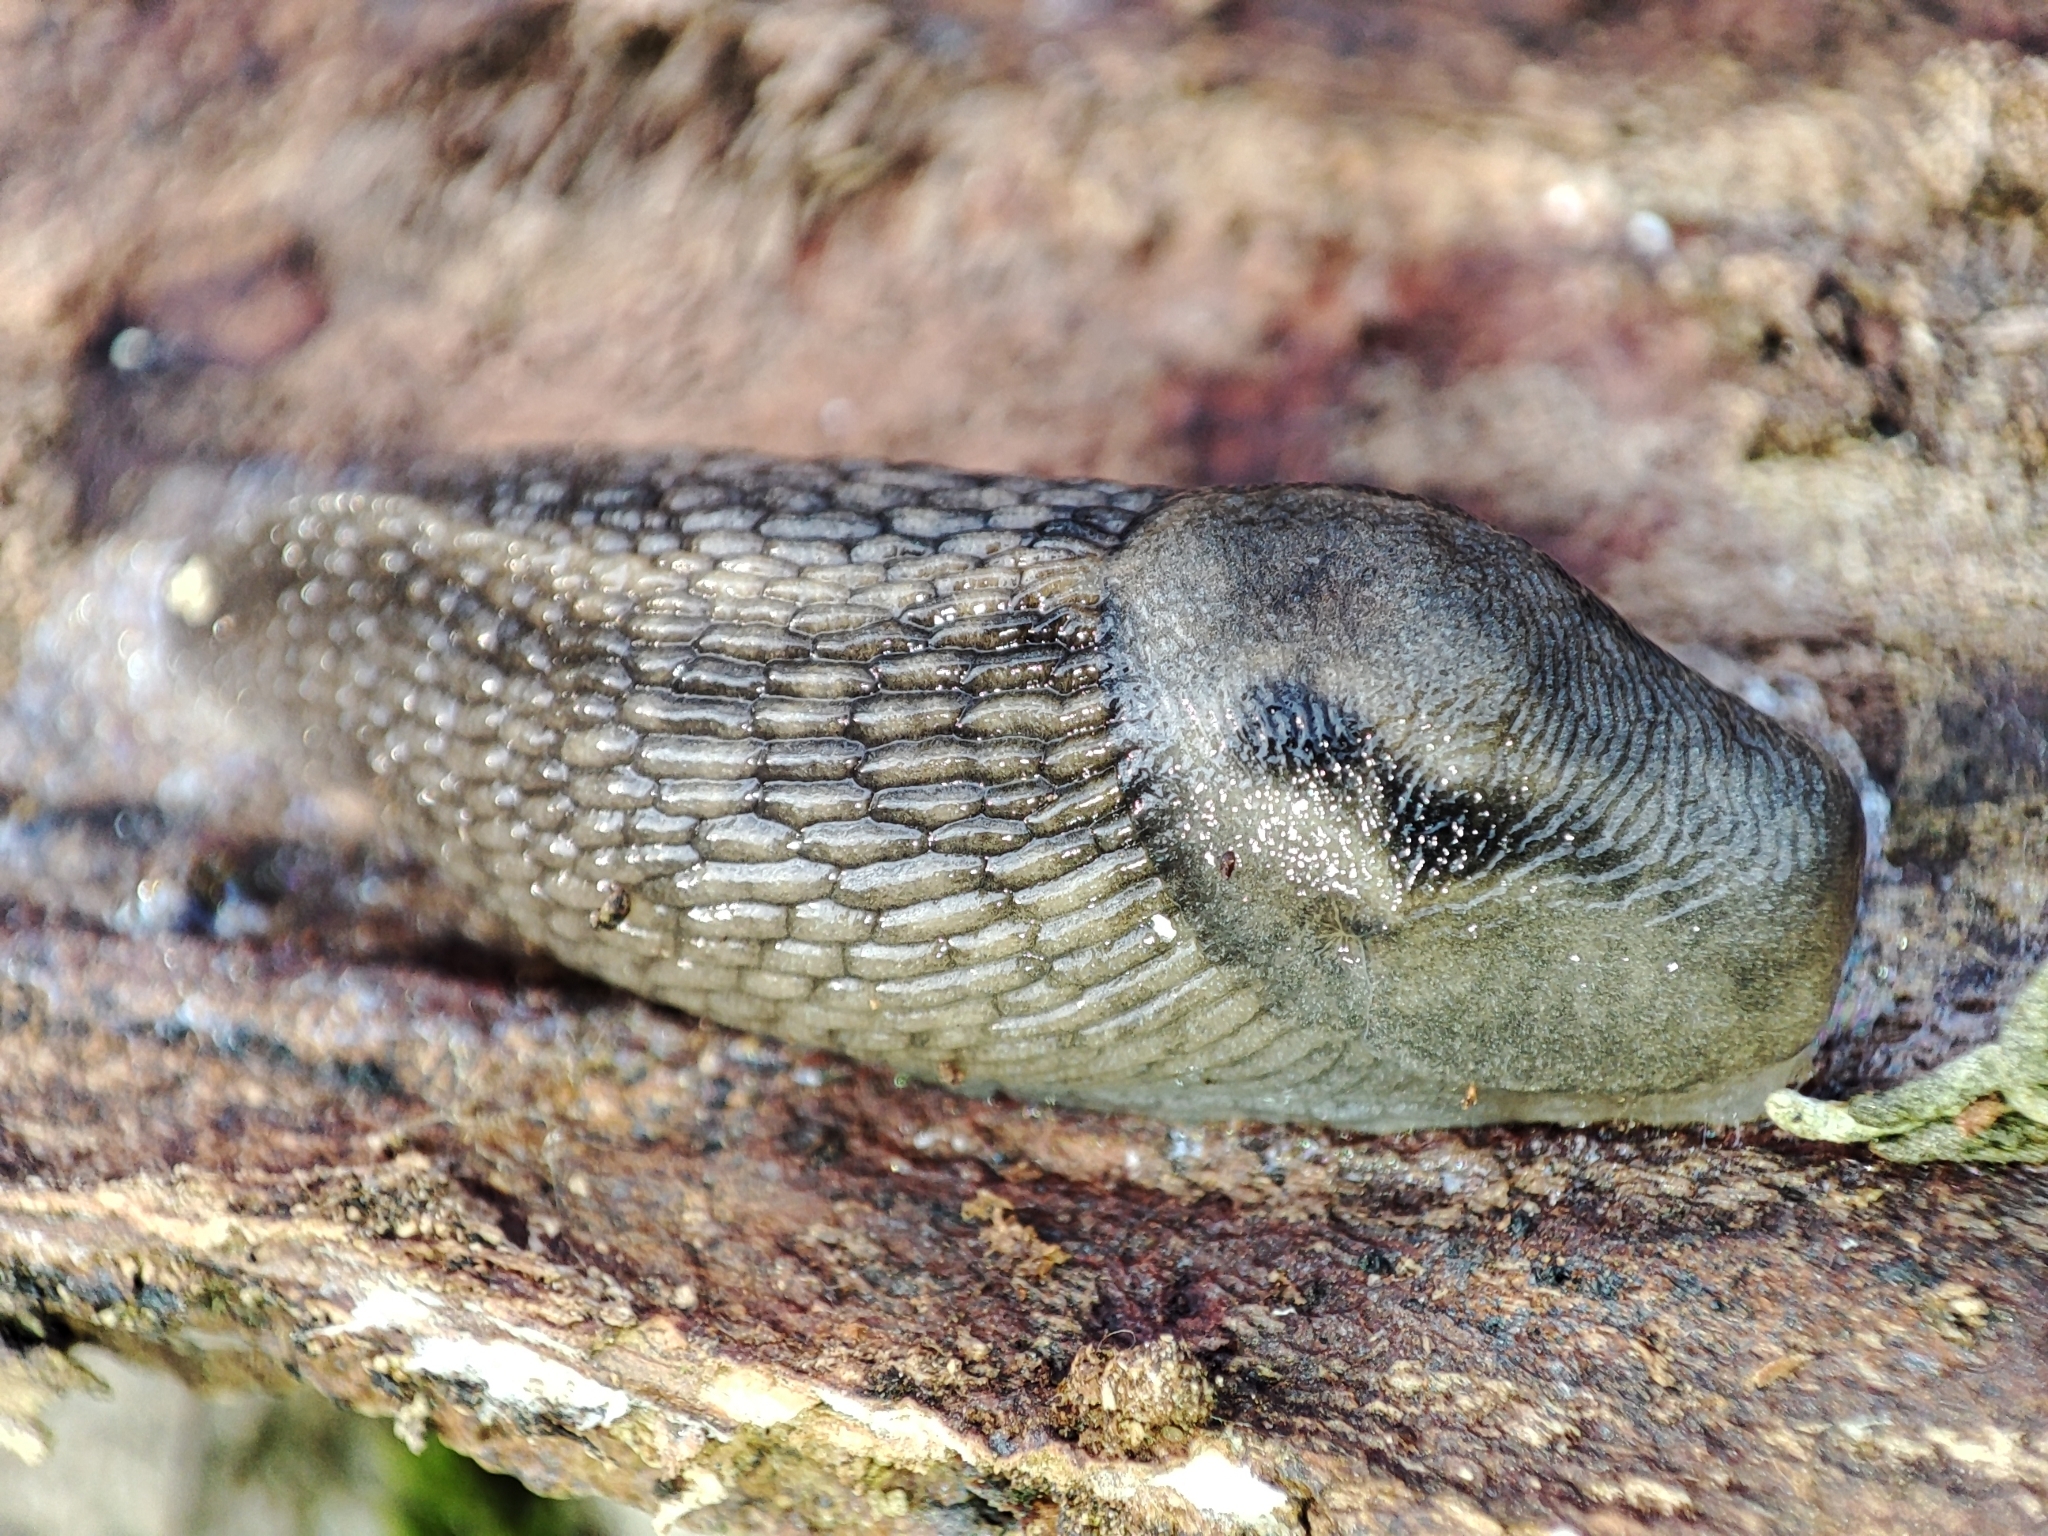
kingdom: Animalia
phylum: Mollusca
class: Gastropoda
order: Stylommatophora
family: Limacidae
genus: Lehmannia
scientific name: Lehmannia marginata
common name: Tree slug
